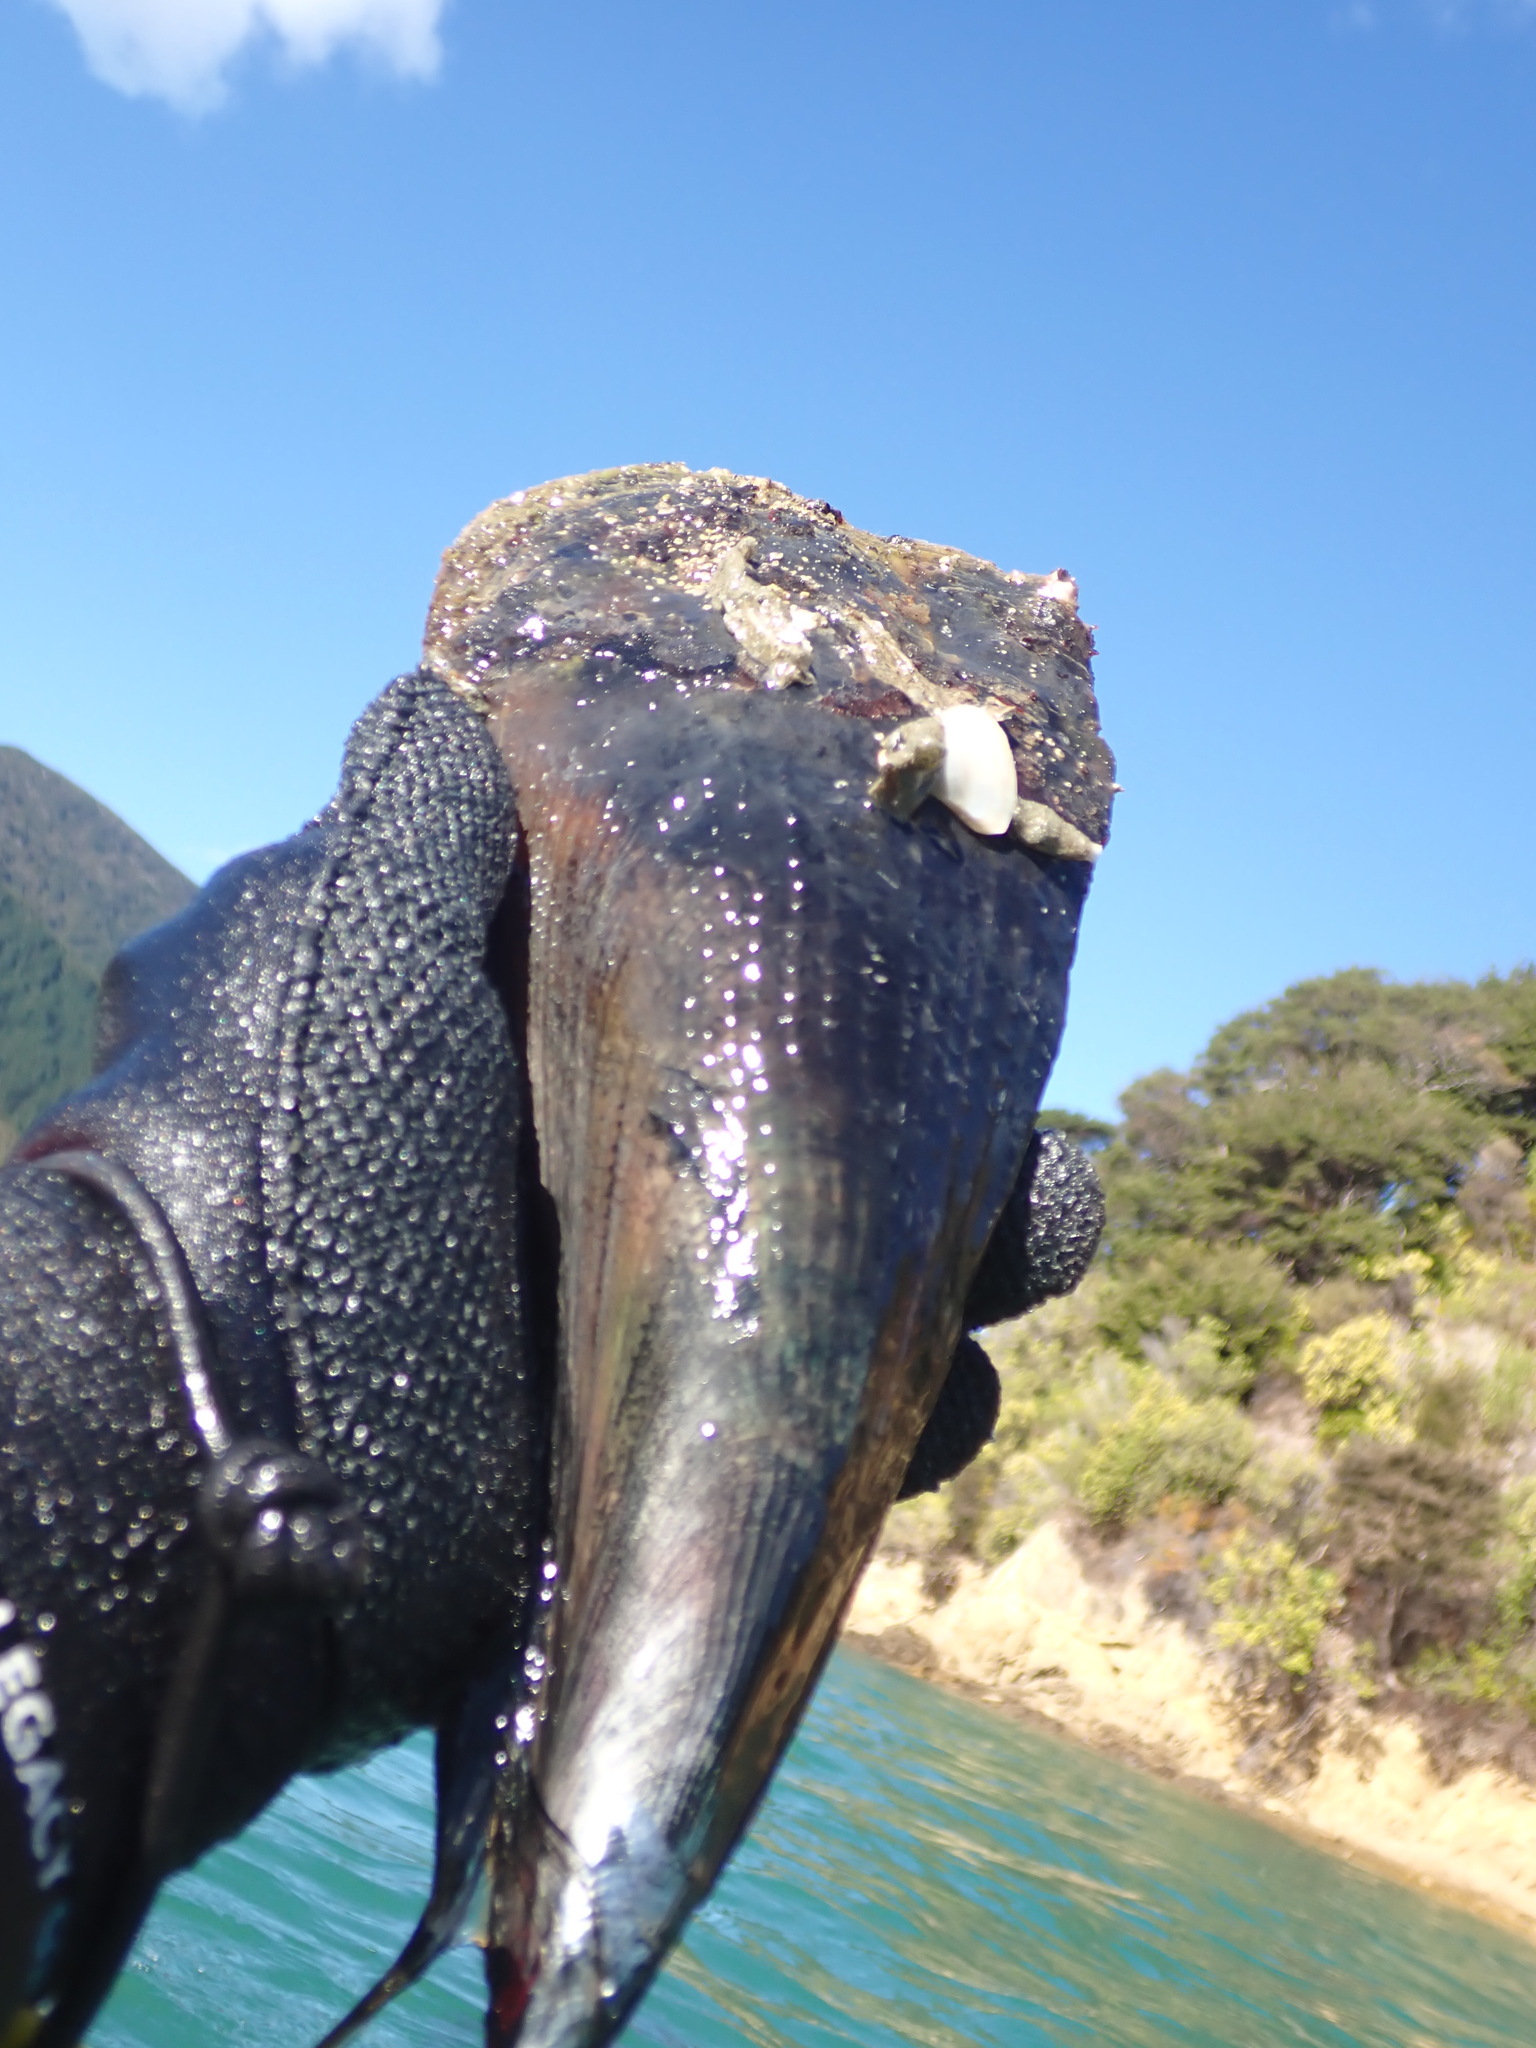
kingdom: Animalia
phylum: Mollusca
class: Bivalvia
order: Ostreida
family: Pinnidae
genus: Atrina
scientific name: Atrina zelandica
